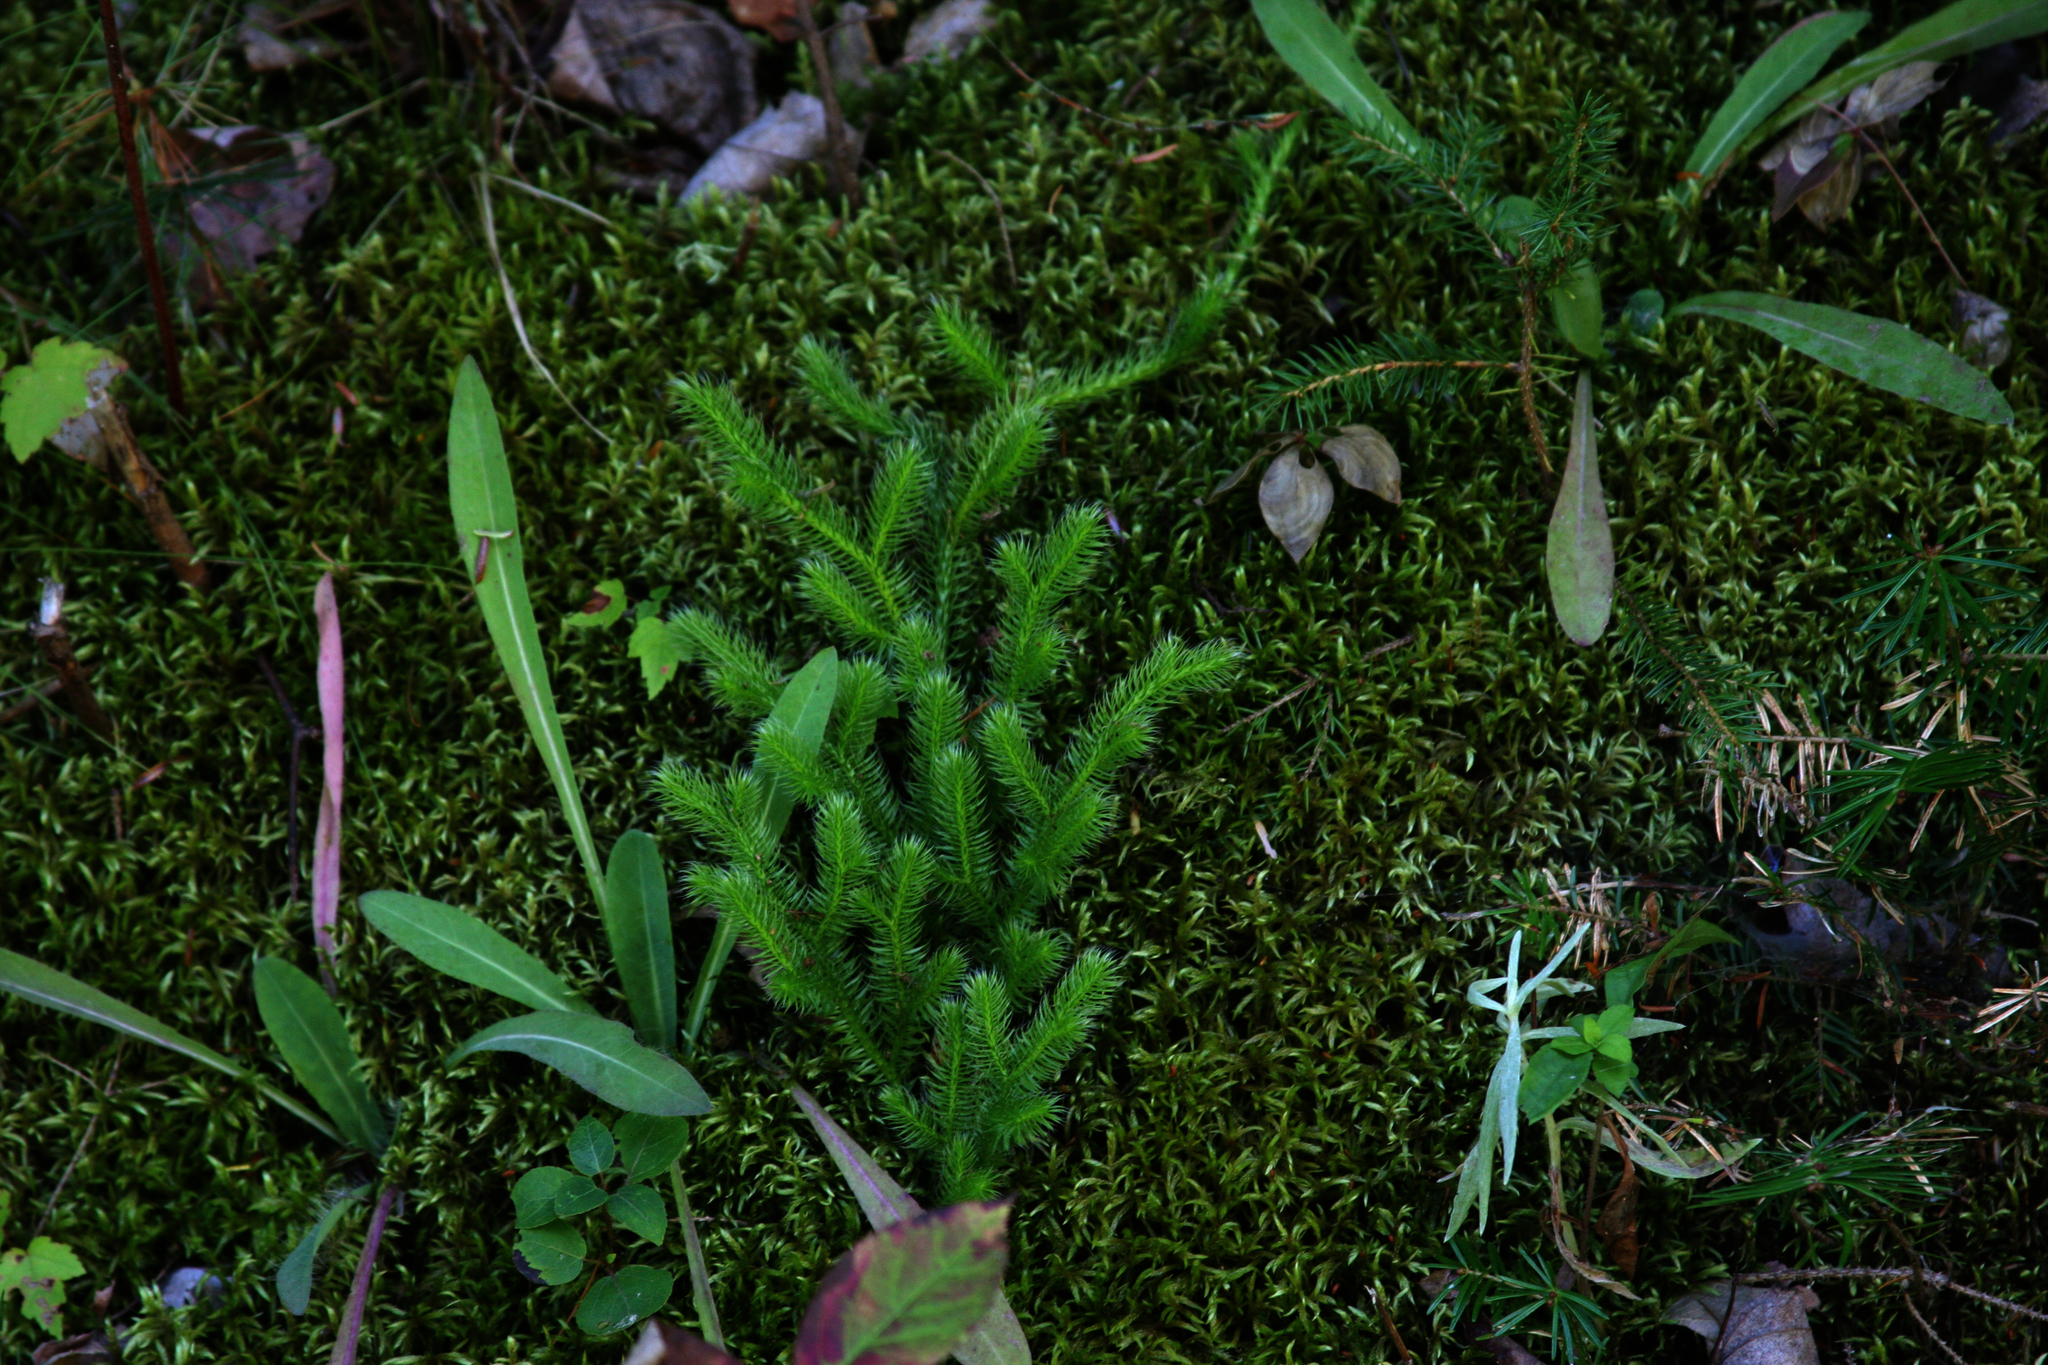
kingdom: Plantae
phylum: Tracheophyta
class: Lycopodiopsida
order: Lycopodiales
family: Lycopodiaceae
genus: Lycopodium
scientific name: Lycopodium clavatum
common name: Stag's-horn clubmoss
